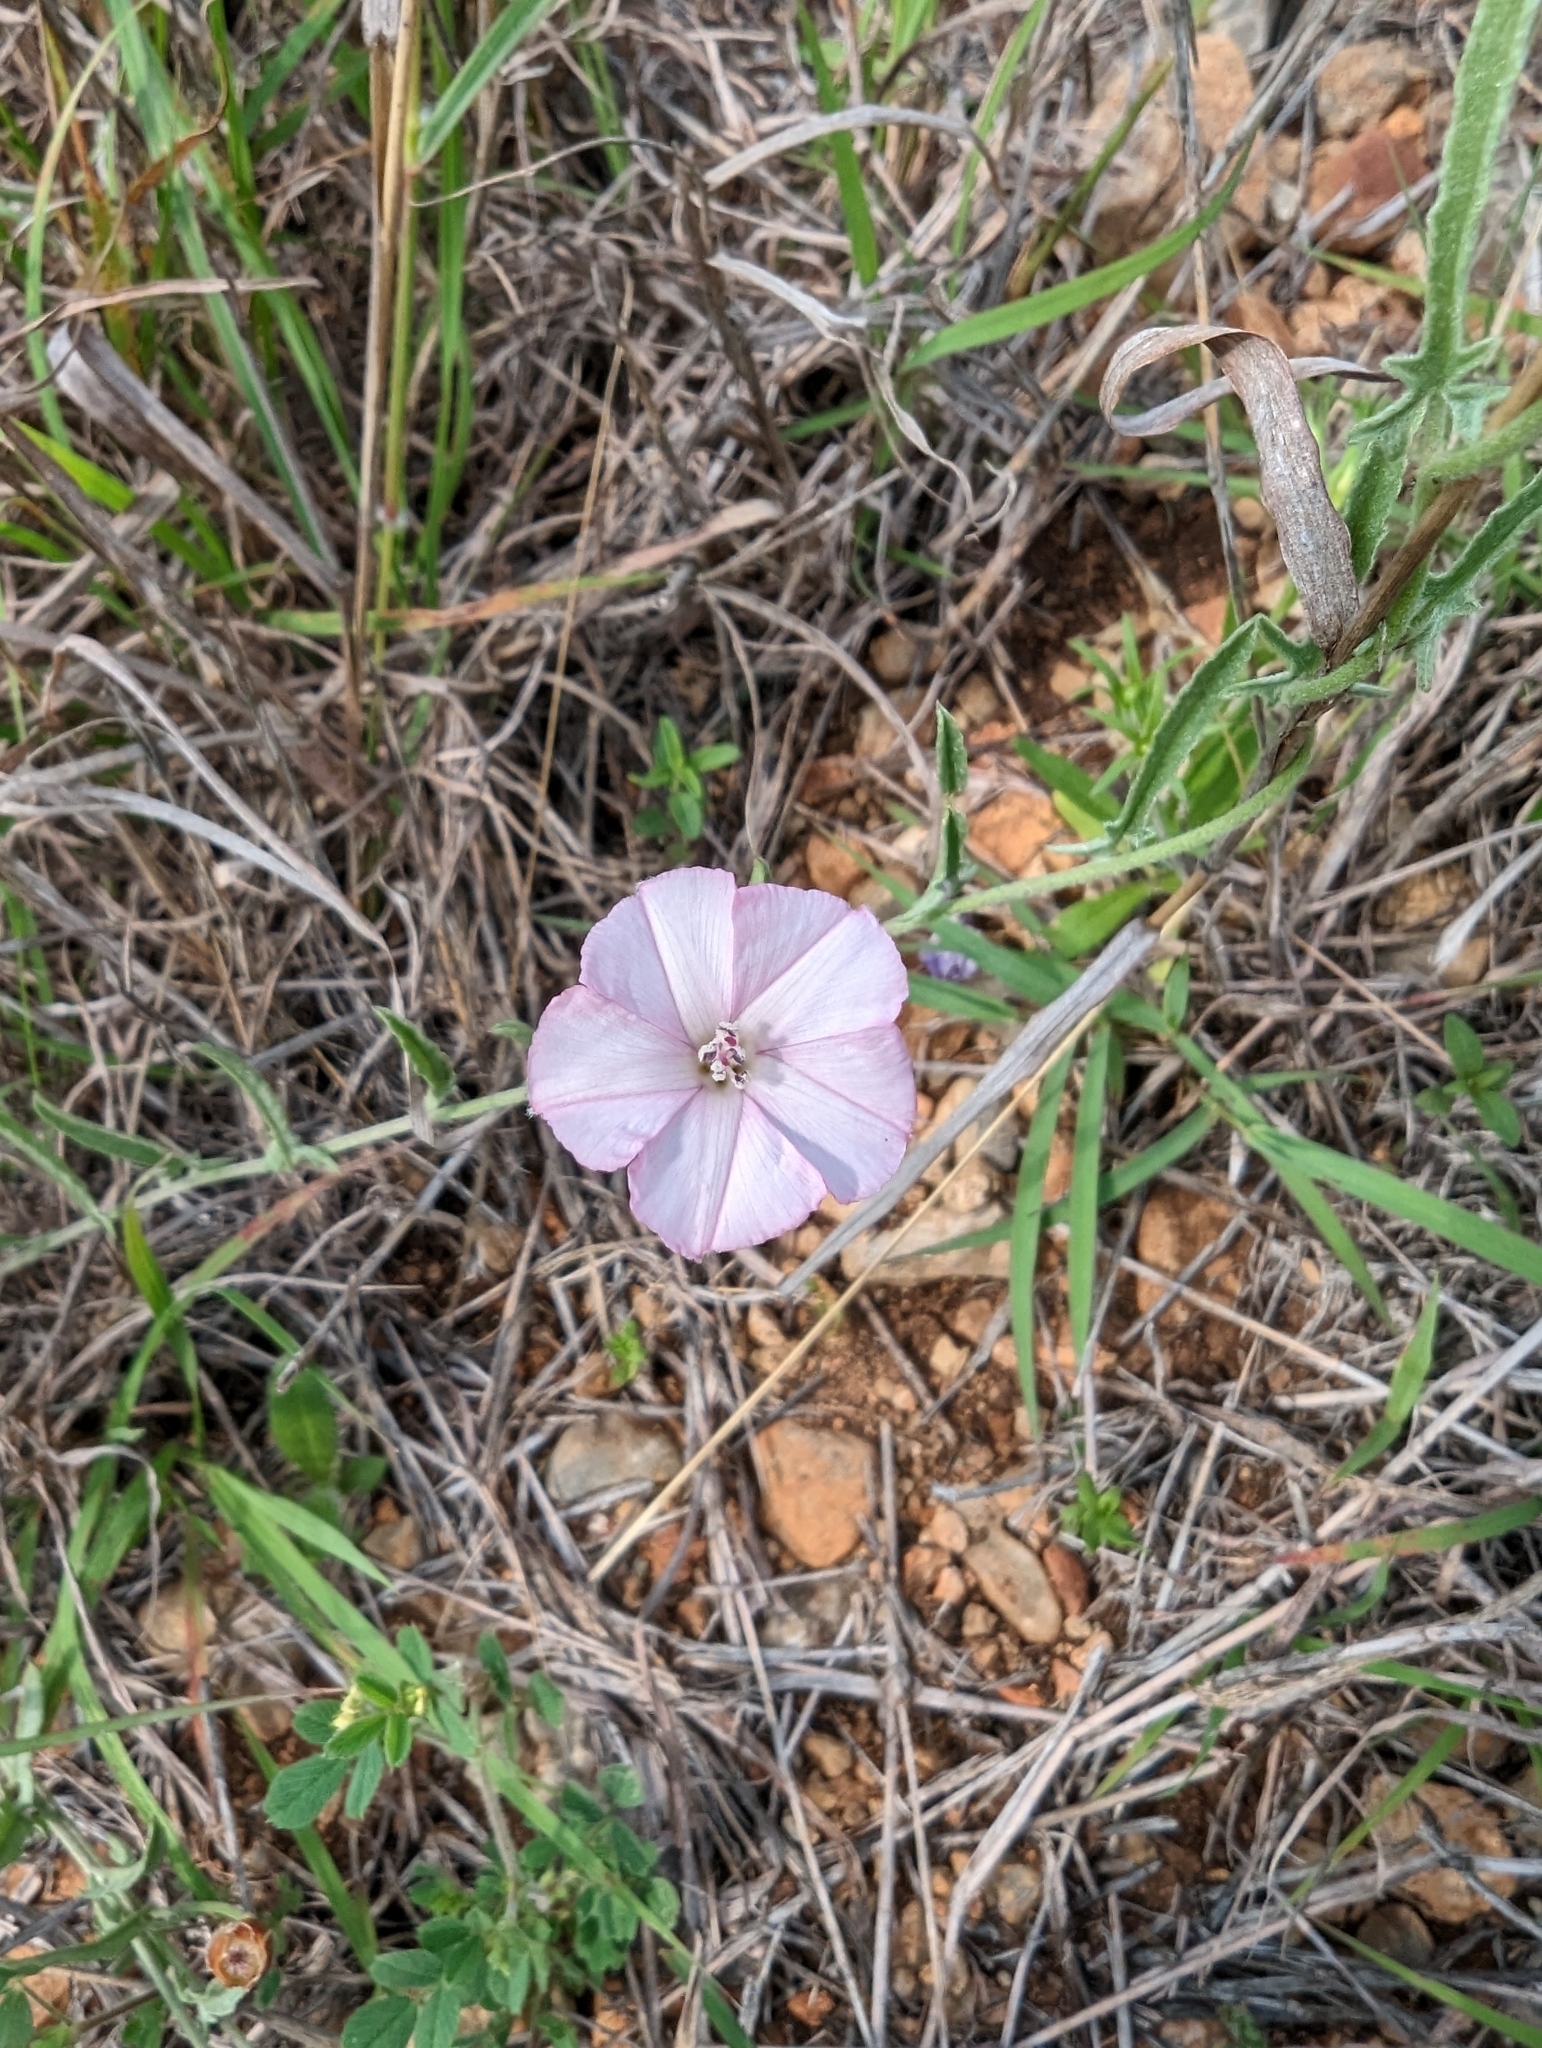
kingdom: Plantae
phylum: Tracheophyta
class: Magnoliopsida
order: Solanales
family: Convolvulaceae
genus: Convolvulus
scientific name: Convolvulus equitans
